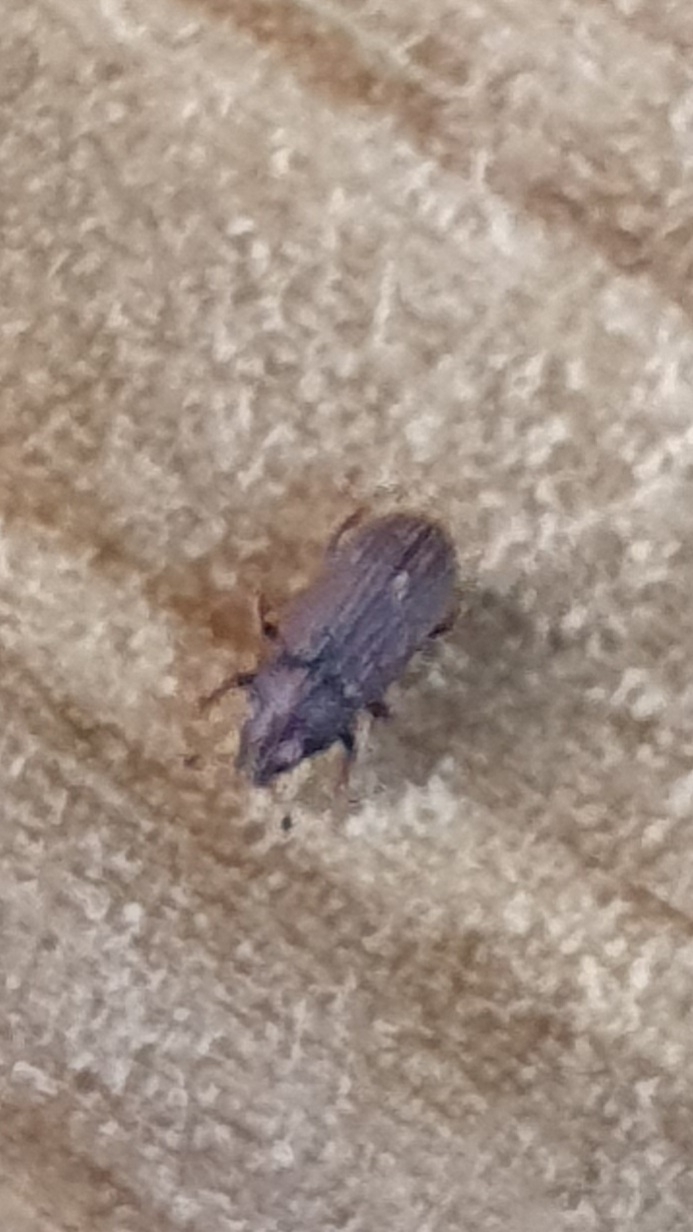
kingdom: Animalia
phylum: Arthropoda
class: Insecta
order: Coleoptera
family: Curculionidae
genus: Hylurgops
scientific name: Hylurgops palliatus
